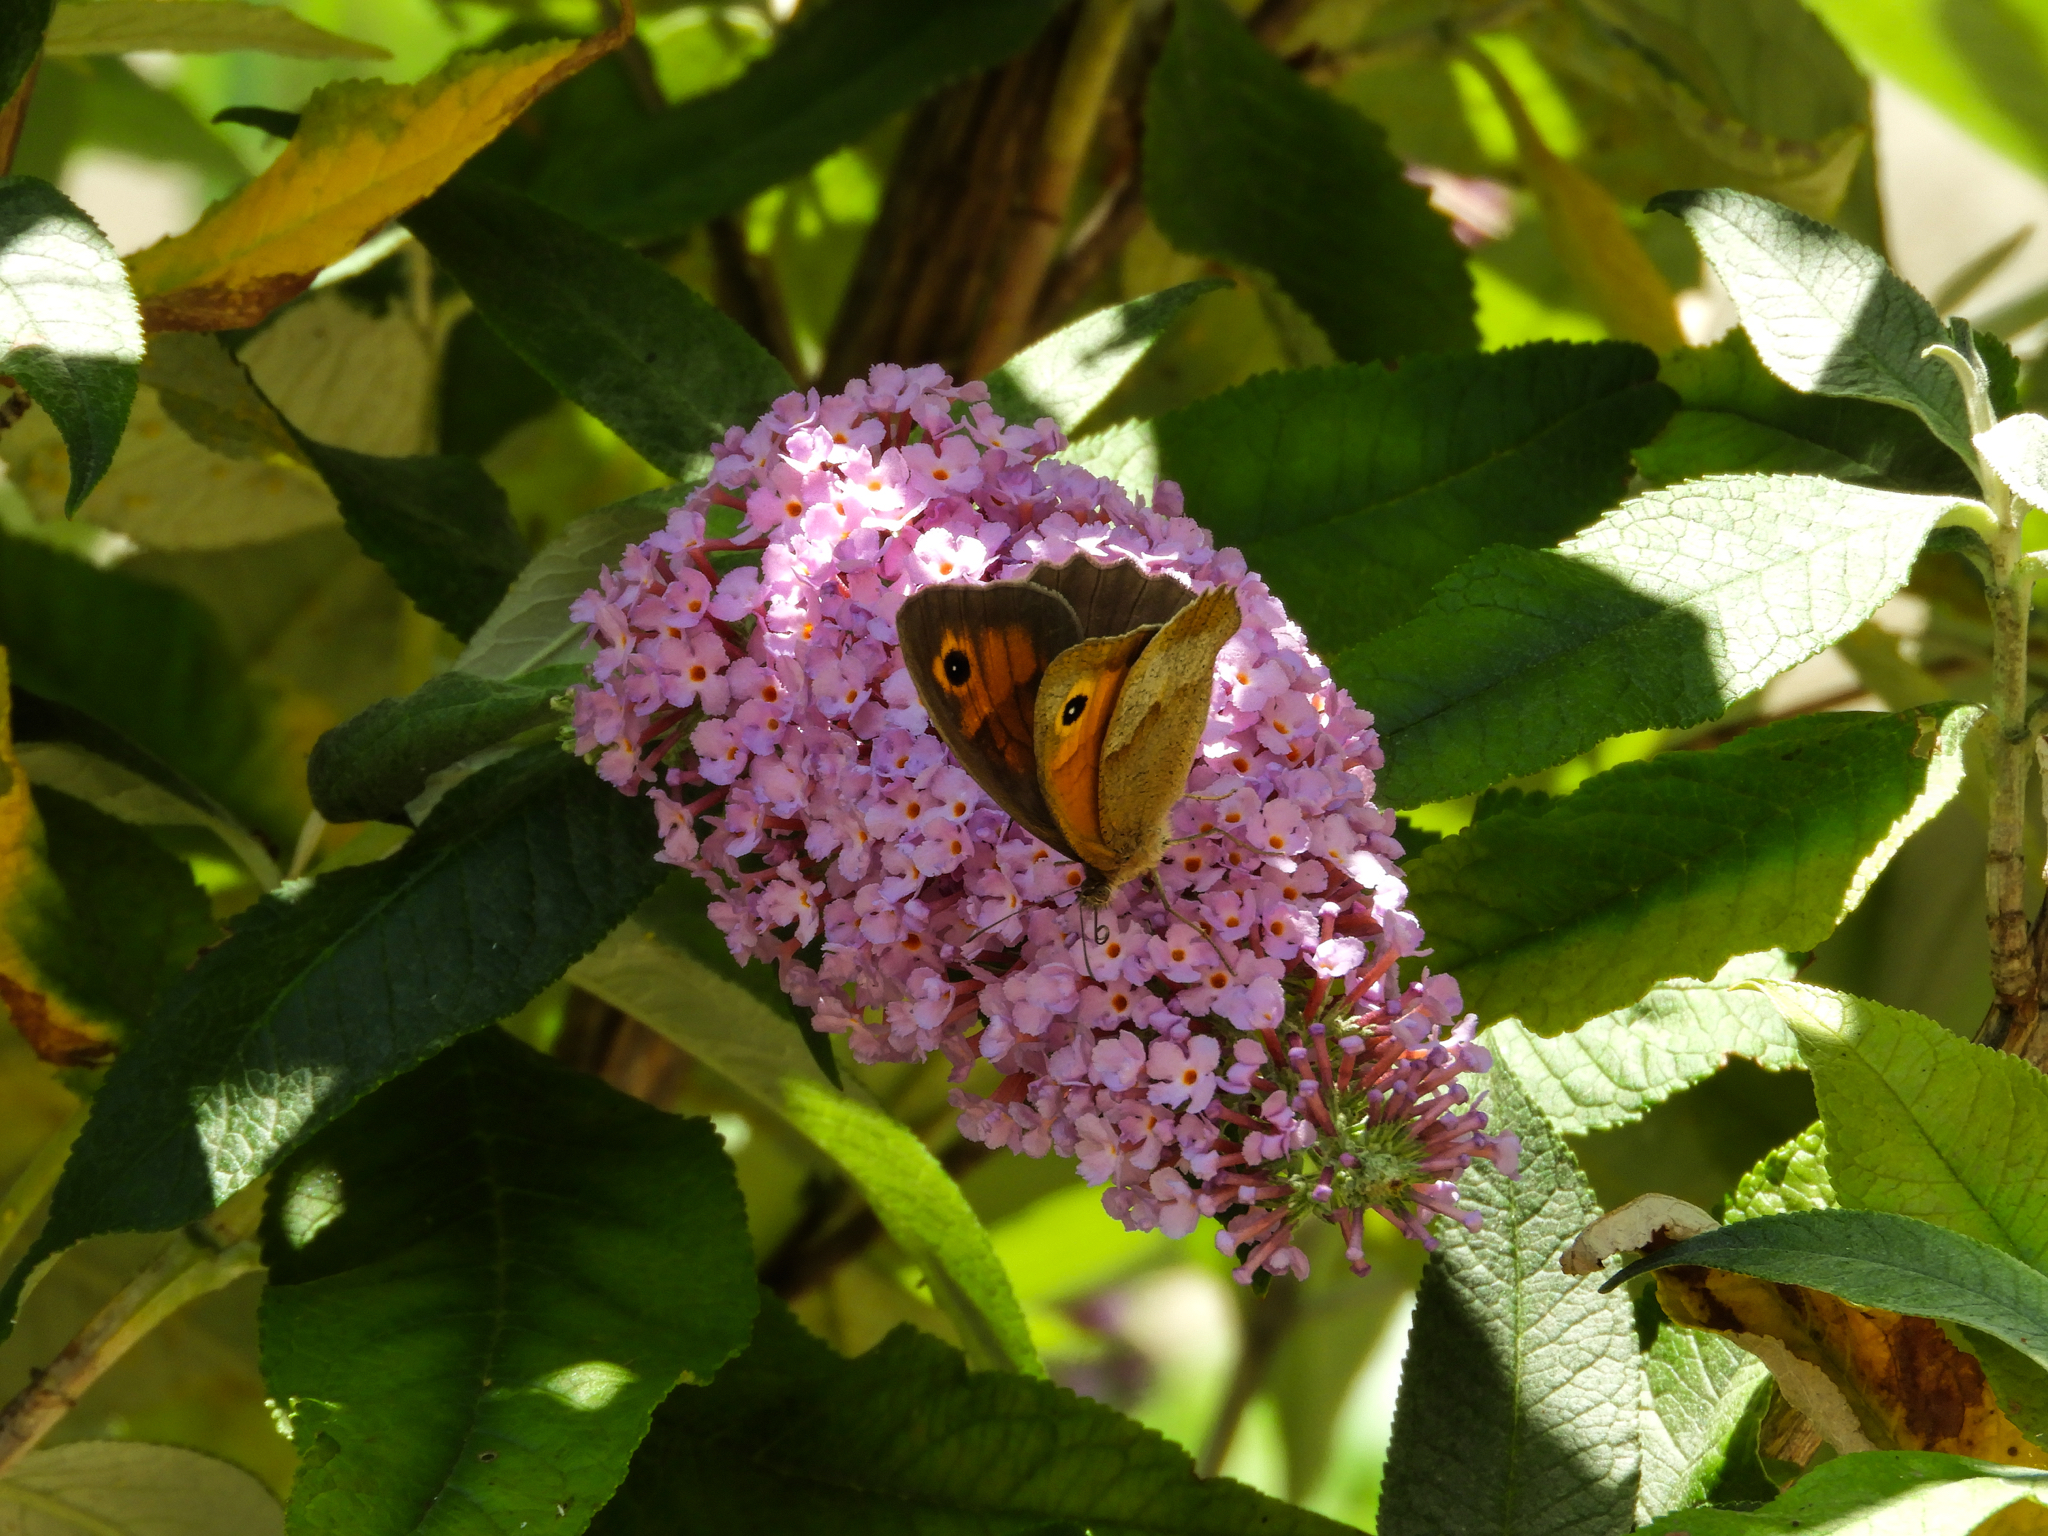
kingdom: Animalia
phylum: Arthropoda
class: Insecta
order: Lepidoptera
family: Nymphalidae
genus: Maniola
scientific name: Maniola jurtina
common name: Meadow brown
